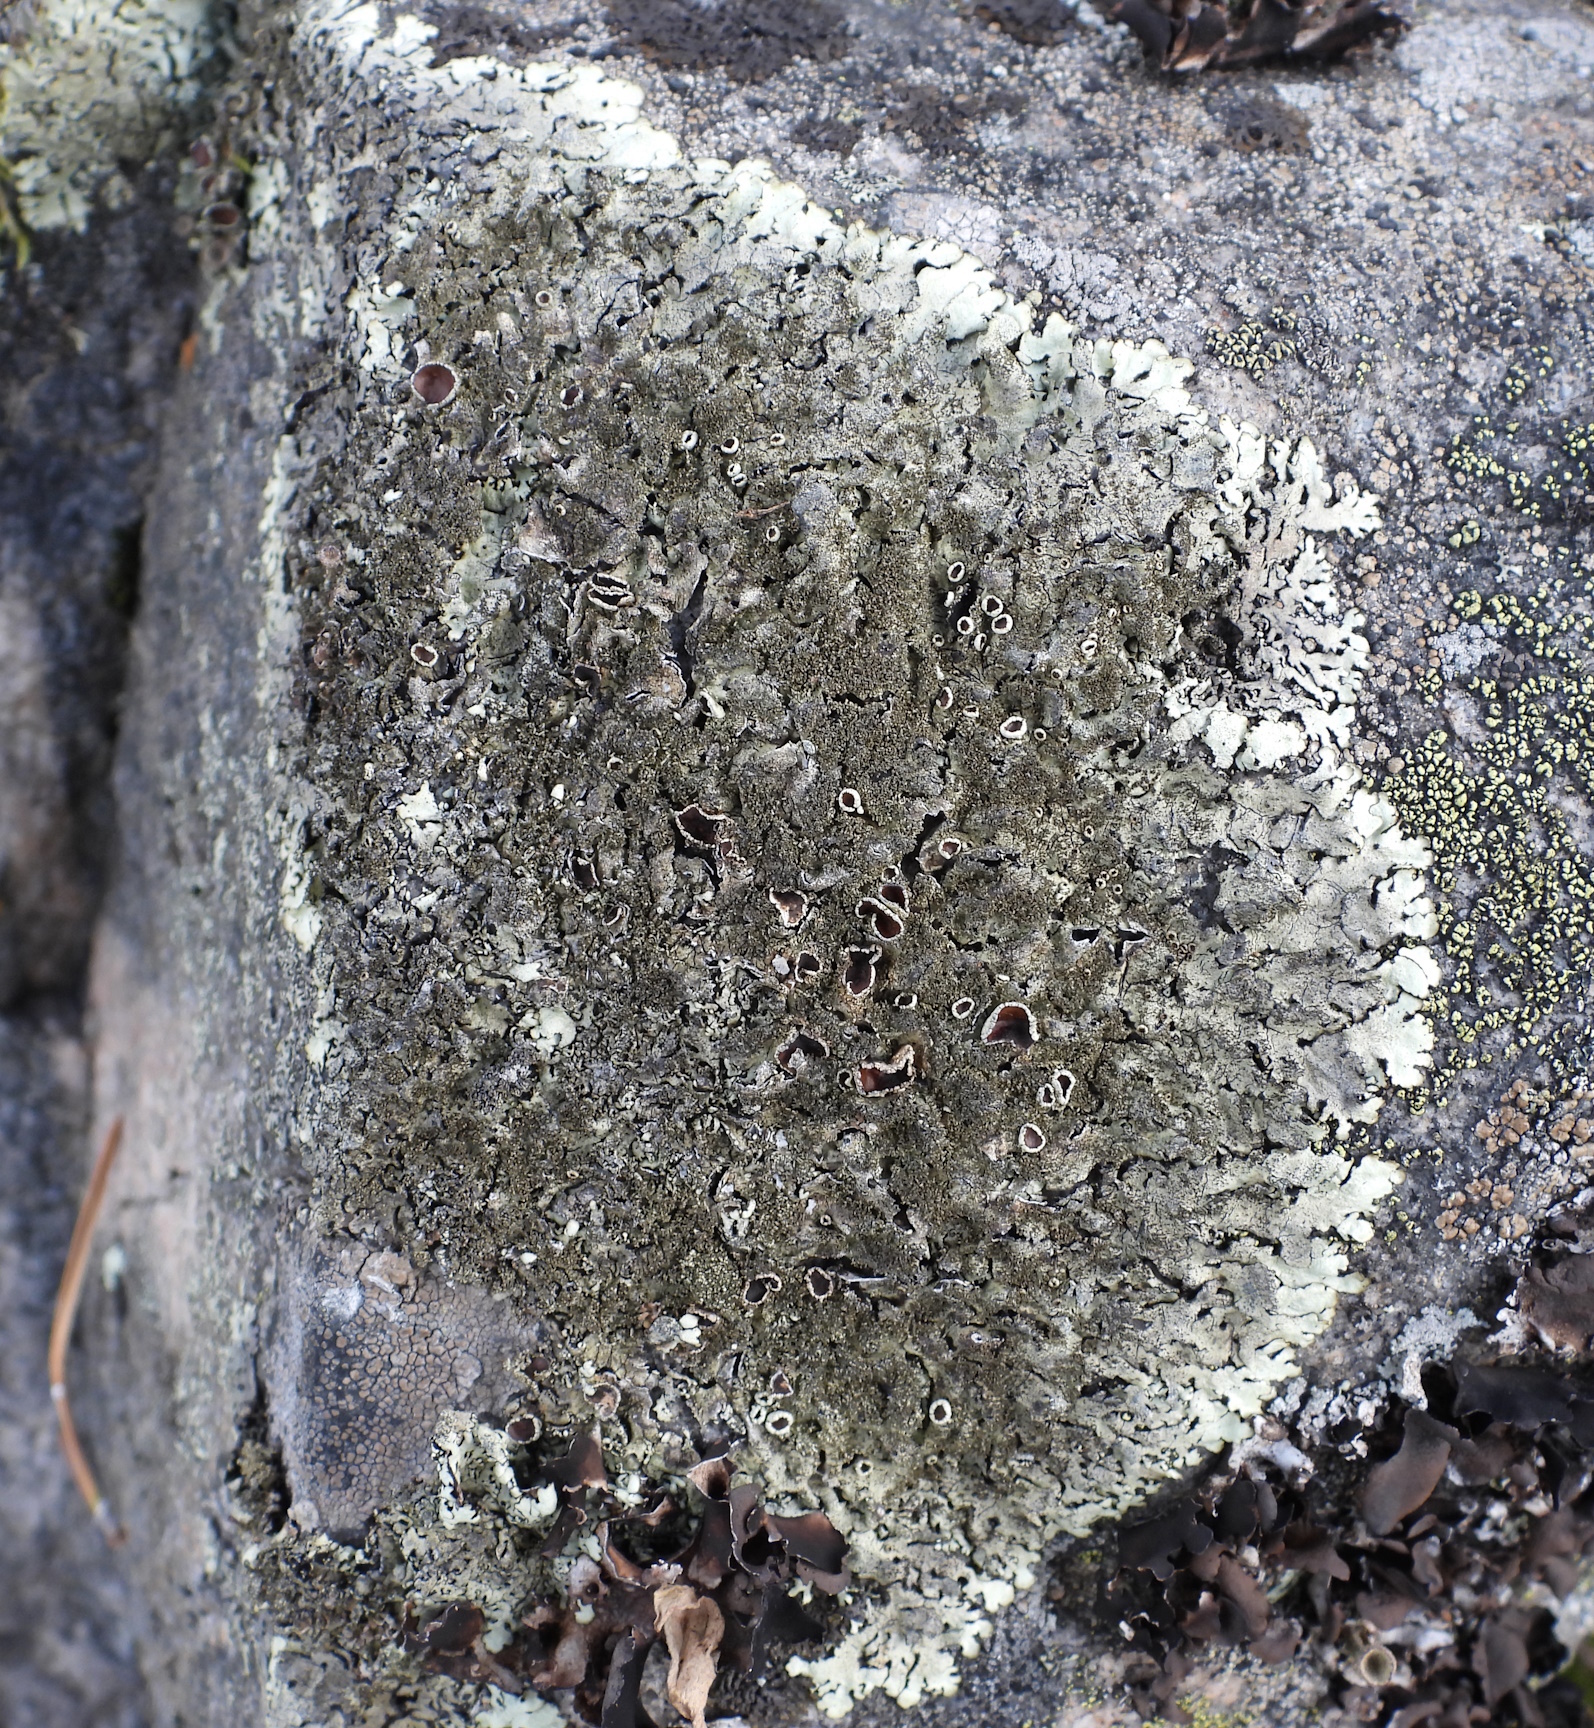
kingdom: Fungi
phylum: Ascomycota
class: Lecanoromycetes
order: Lecanorales
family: Parmeliaceae
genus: Xanthoparmelia
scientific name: Xanthoparmelia conspersa
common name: Peppered rock shield
